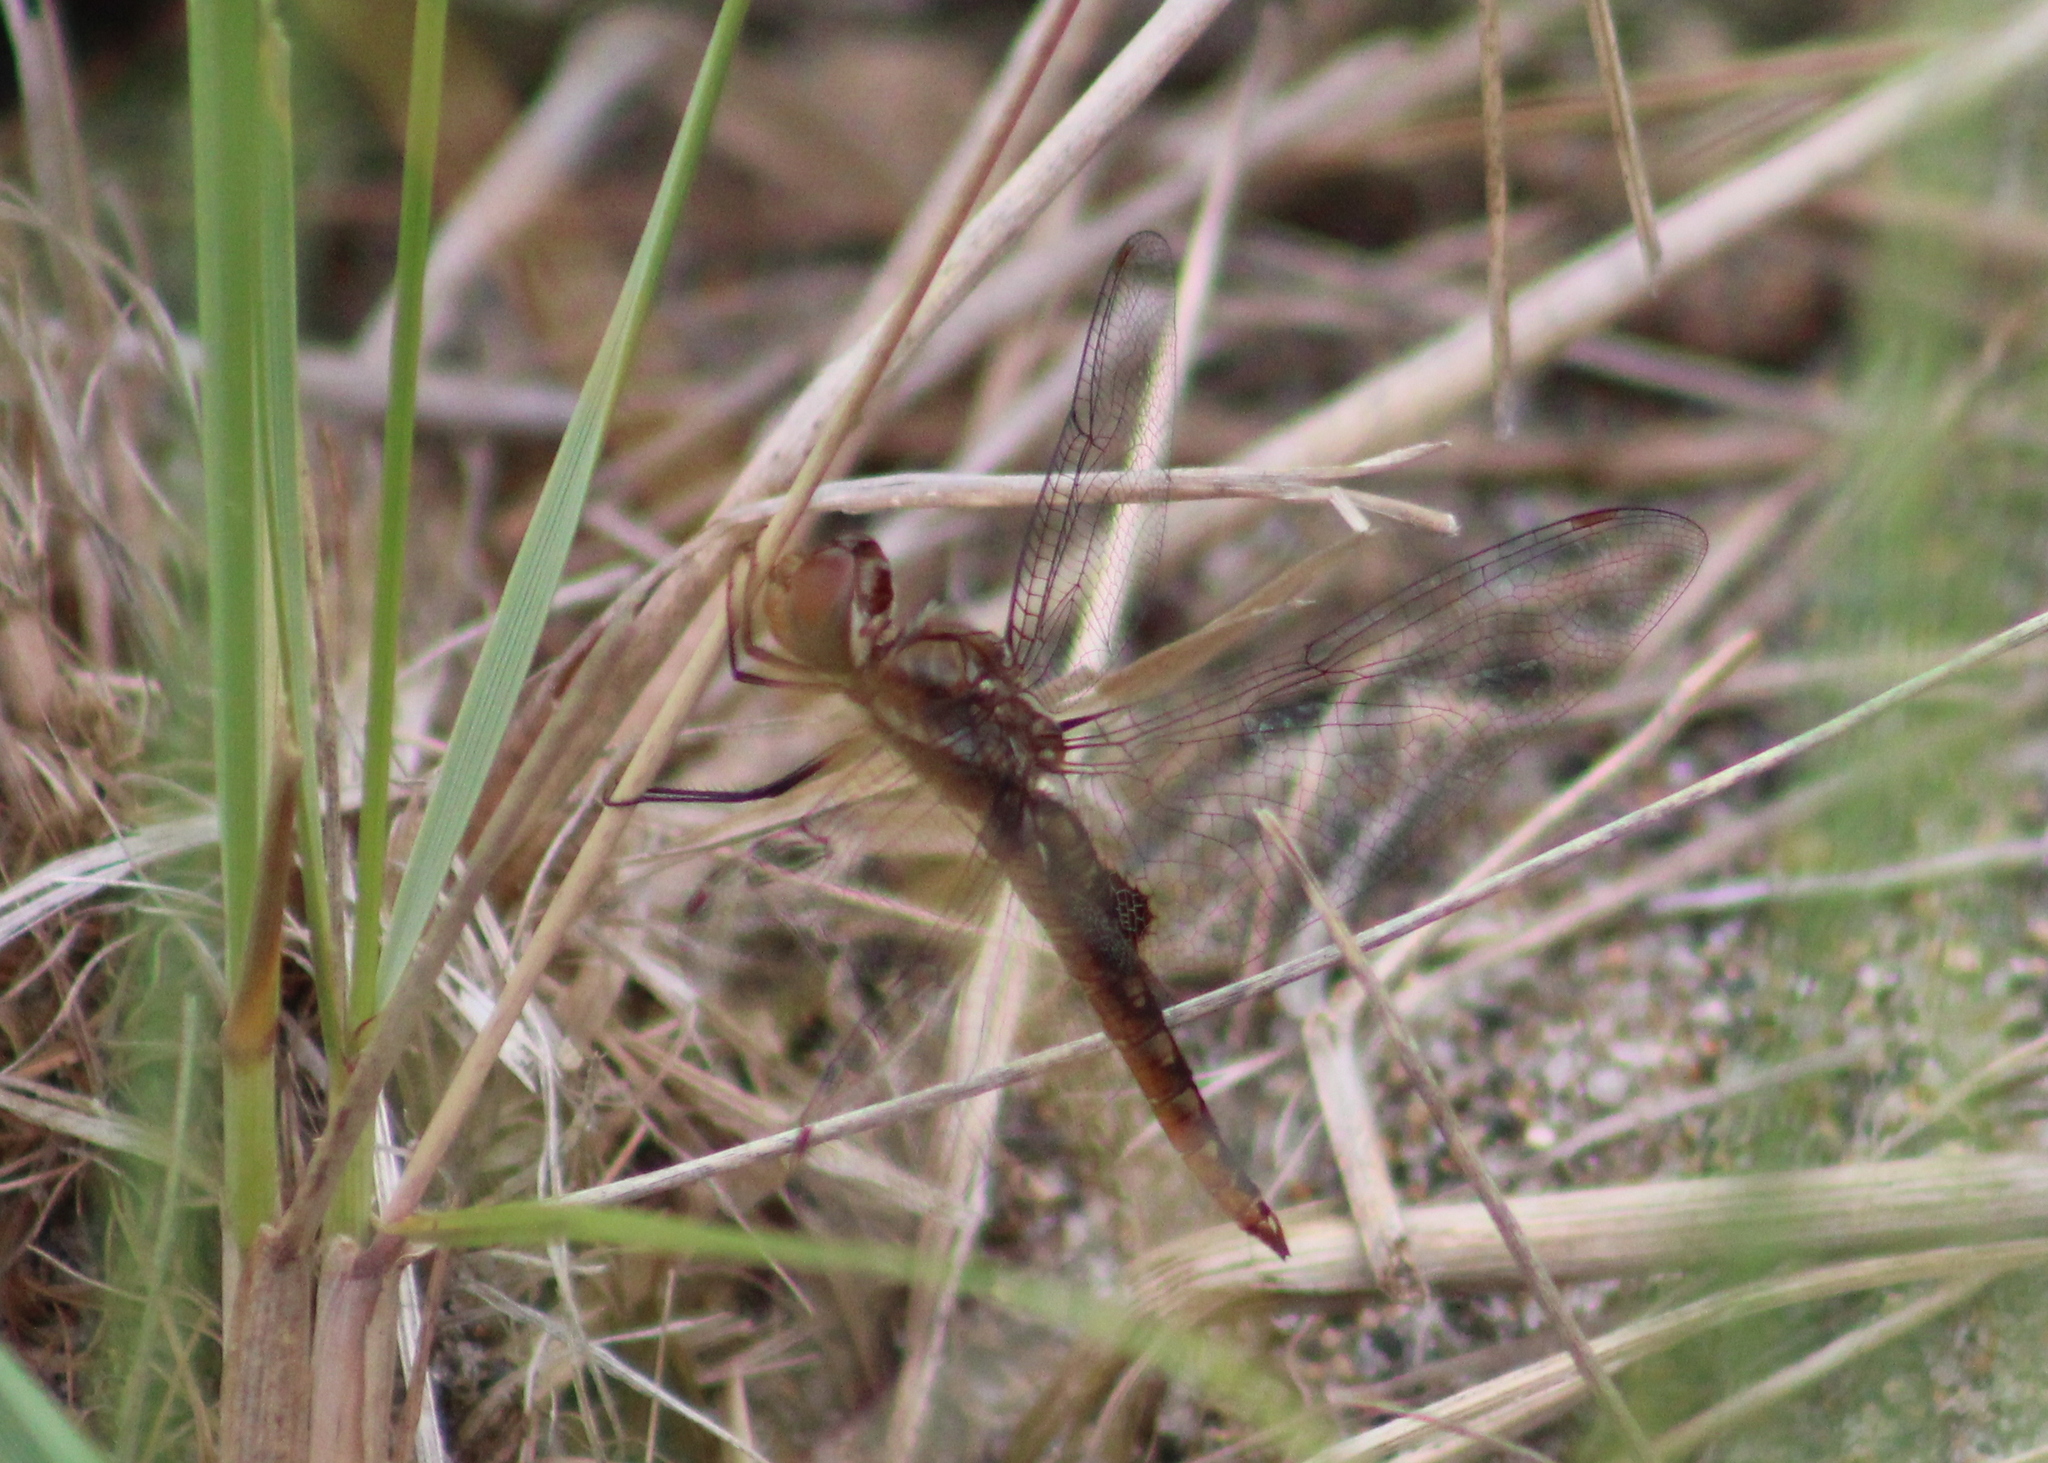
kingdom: Animalia
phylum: Arthropoda
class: Insecta
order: Odonata
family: Libellulidae
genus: Pantala
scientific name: Pantala hymenaea
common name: Spot-winged glider
